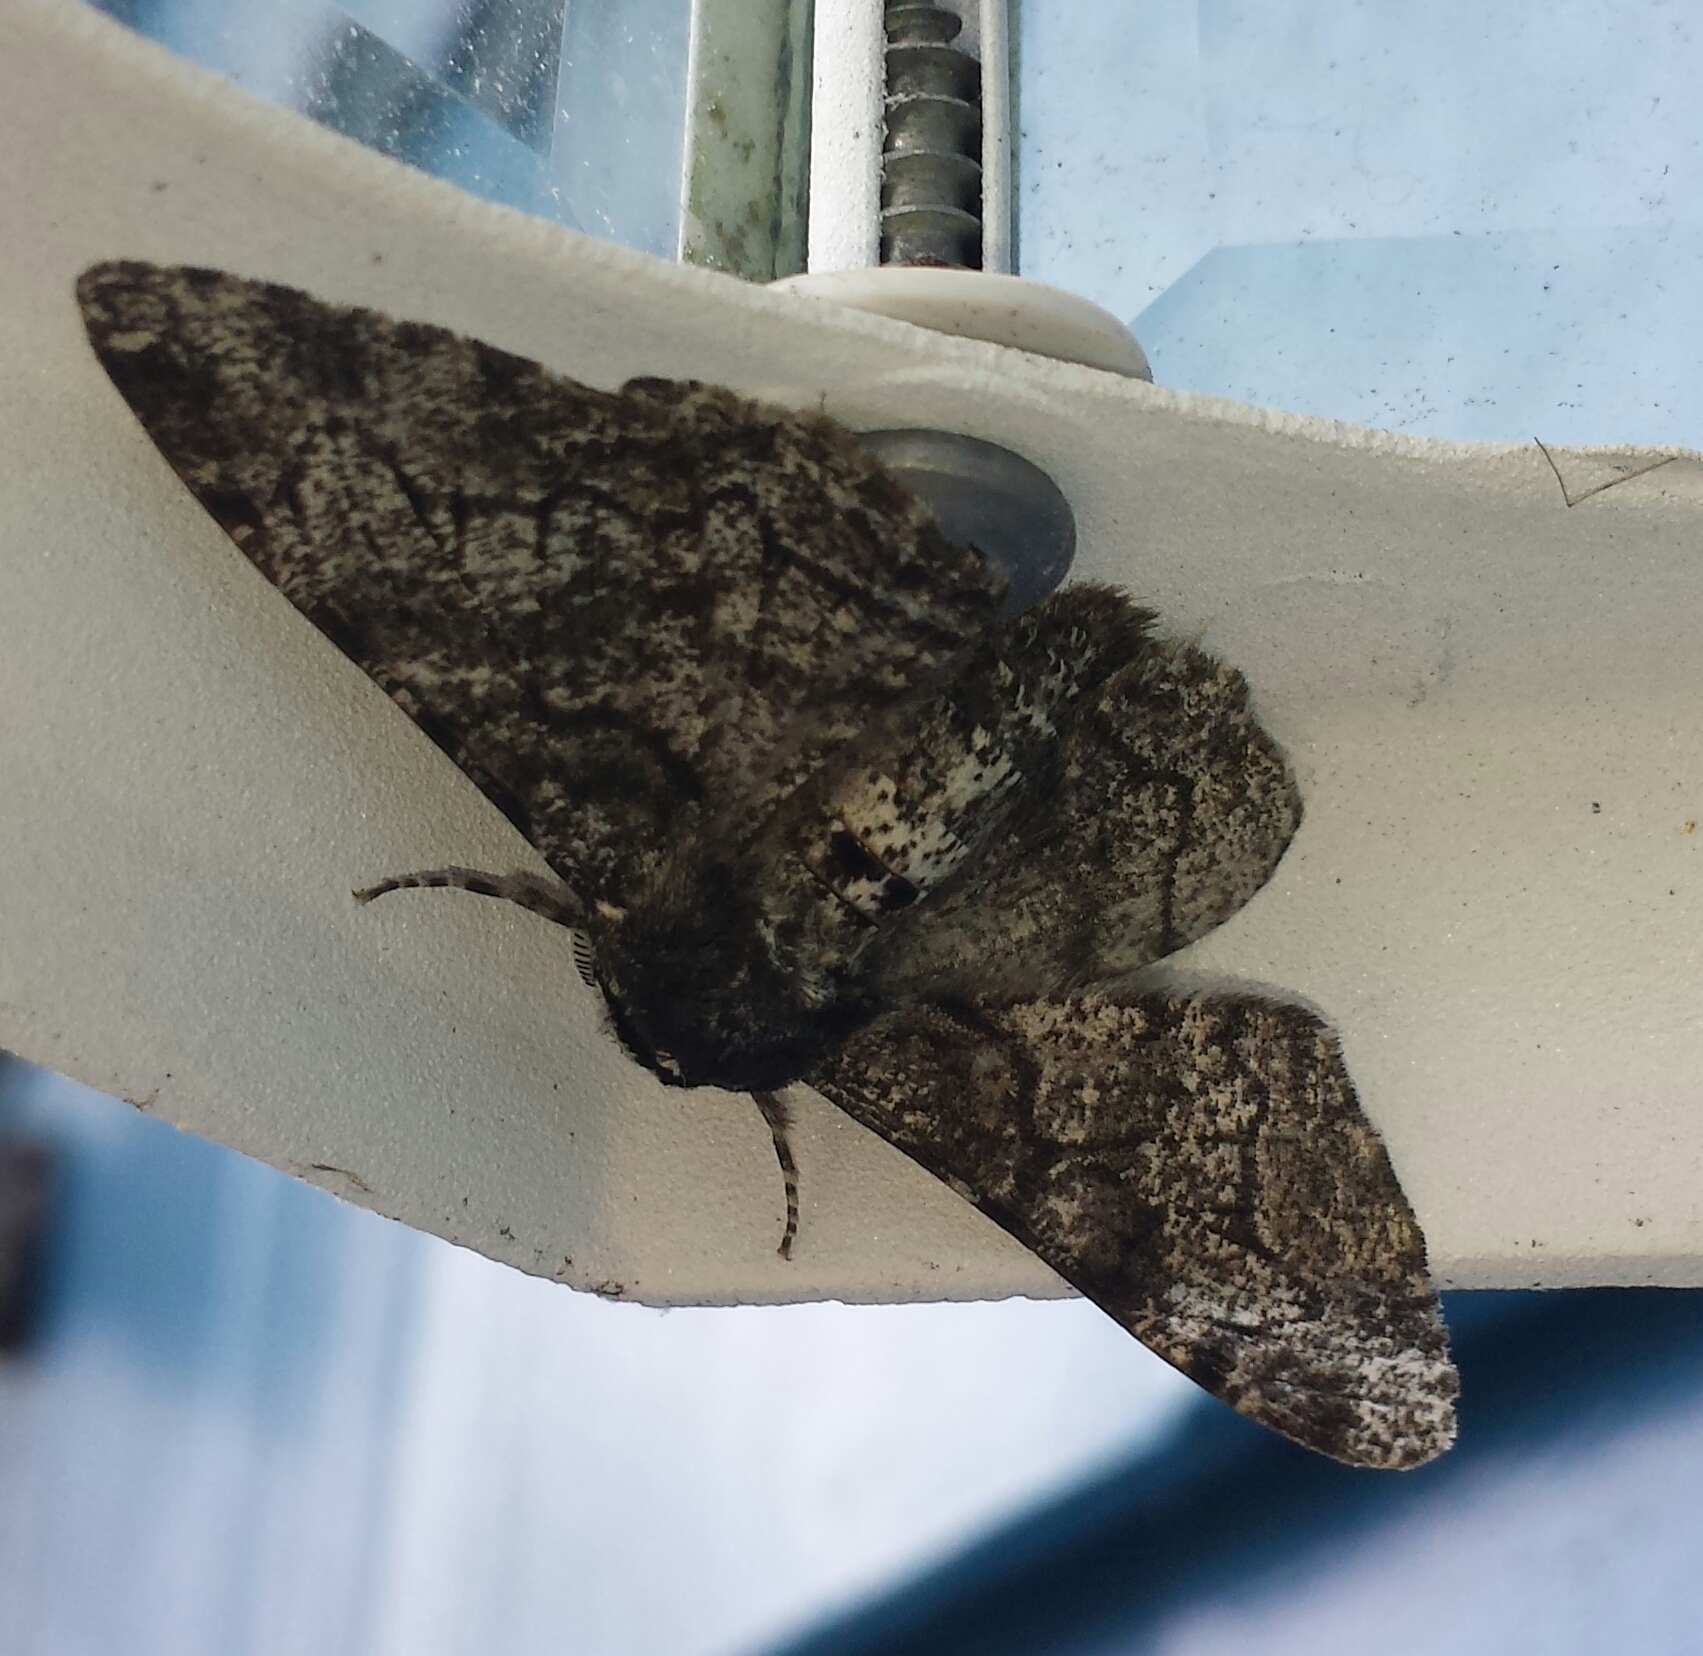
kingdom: Animalia
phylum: Arthropoda
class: Insecta
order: Lepidoptera
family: Geometridae
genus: Biston
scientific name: Biston betularia
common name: Peppered moth
